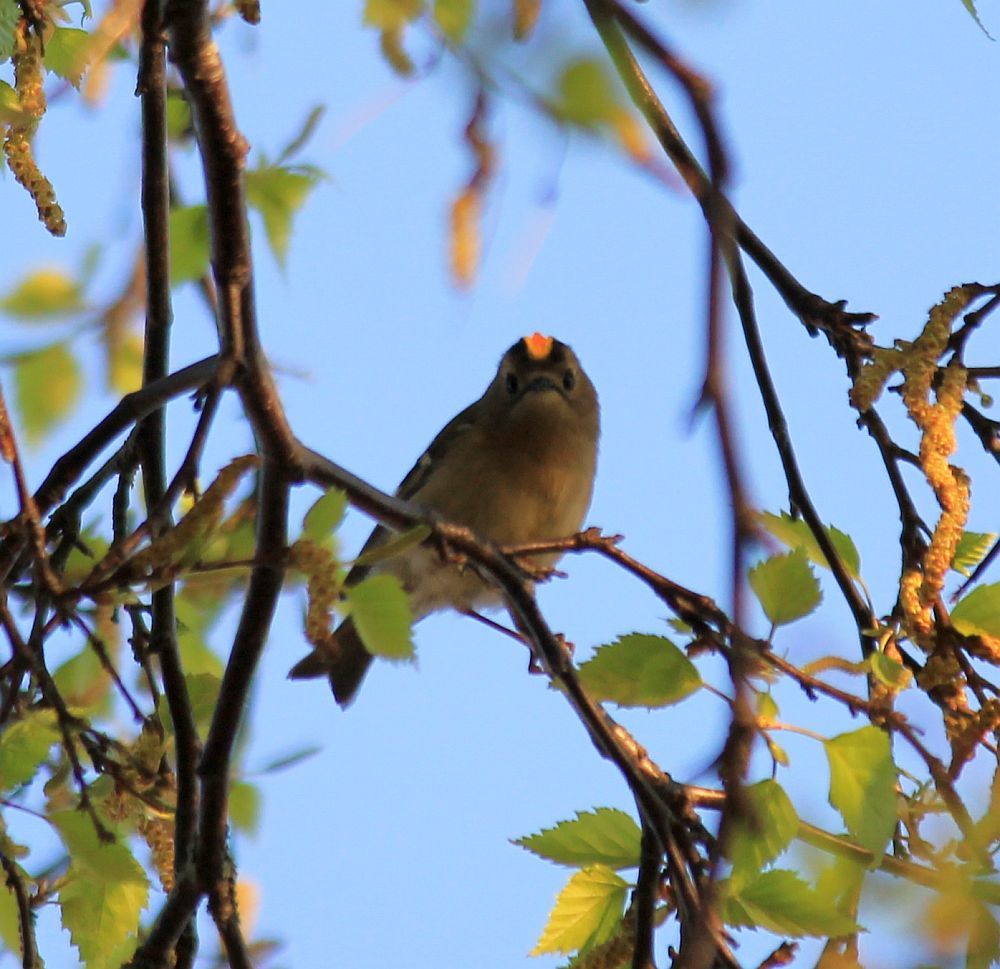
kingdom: Animalia
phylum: Chordata
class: Aves
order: Passeriformes
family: Regulidae
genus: Regulus
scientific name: Regulus regulus
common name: Goldcrest
